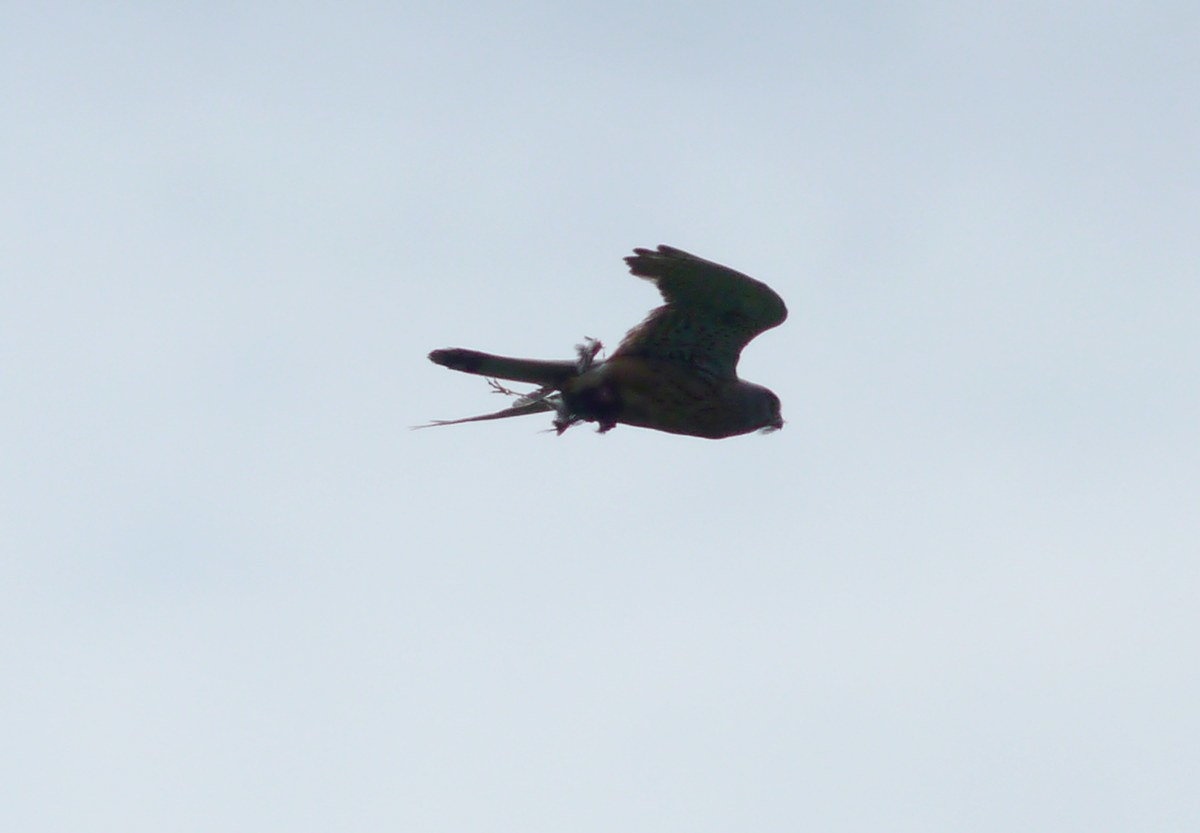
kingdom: Animalia
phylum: Chordata
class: Aves
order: Falconiformes
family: Falconidae
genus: Falco
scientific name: Falco tinnunculus
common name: Common kestrel
